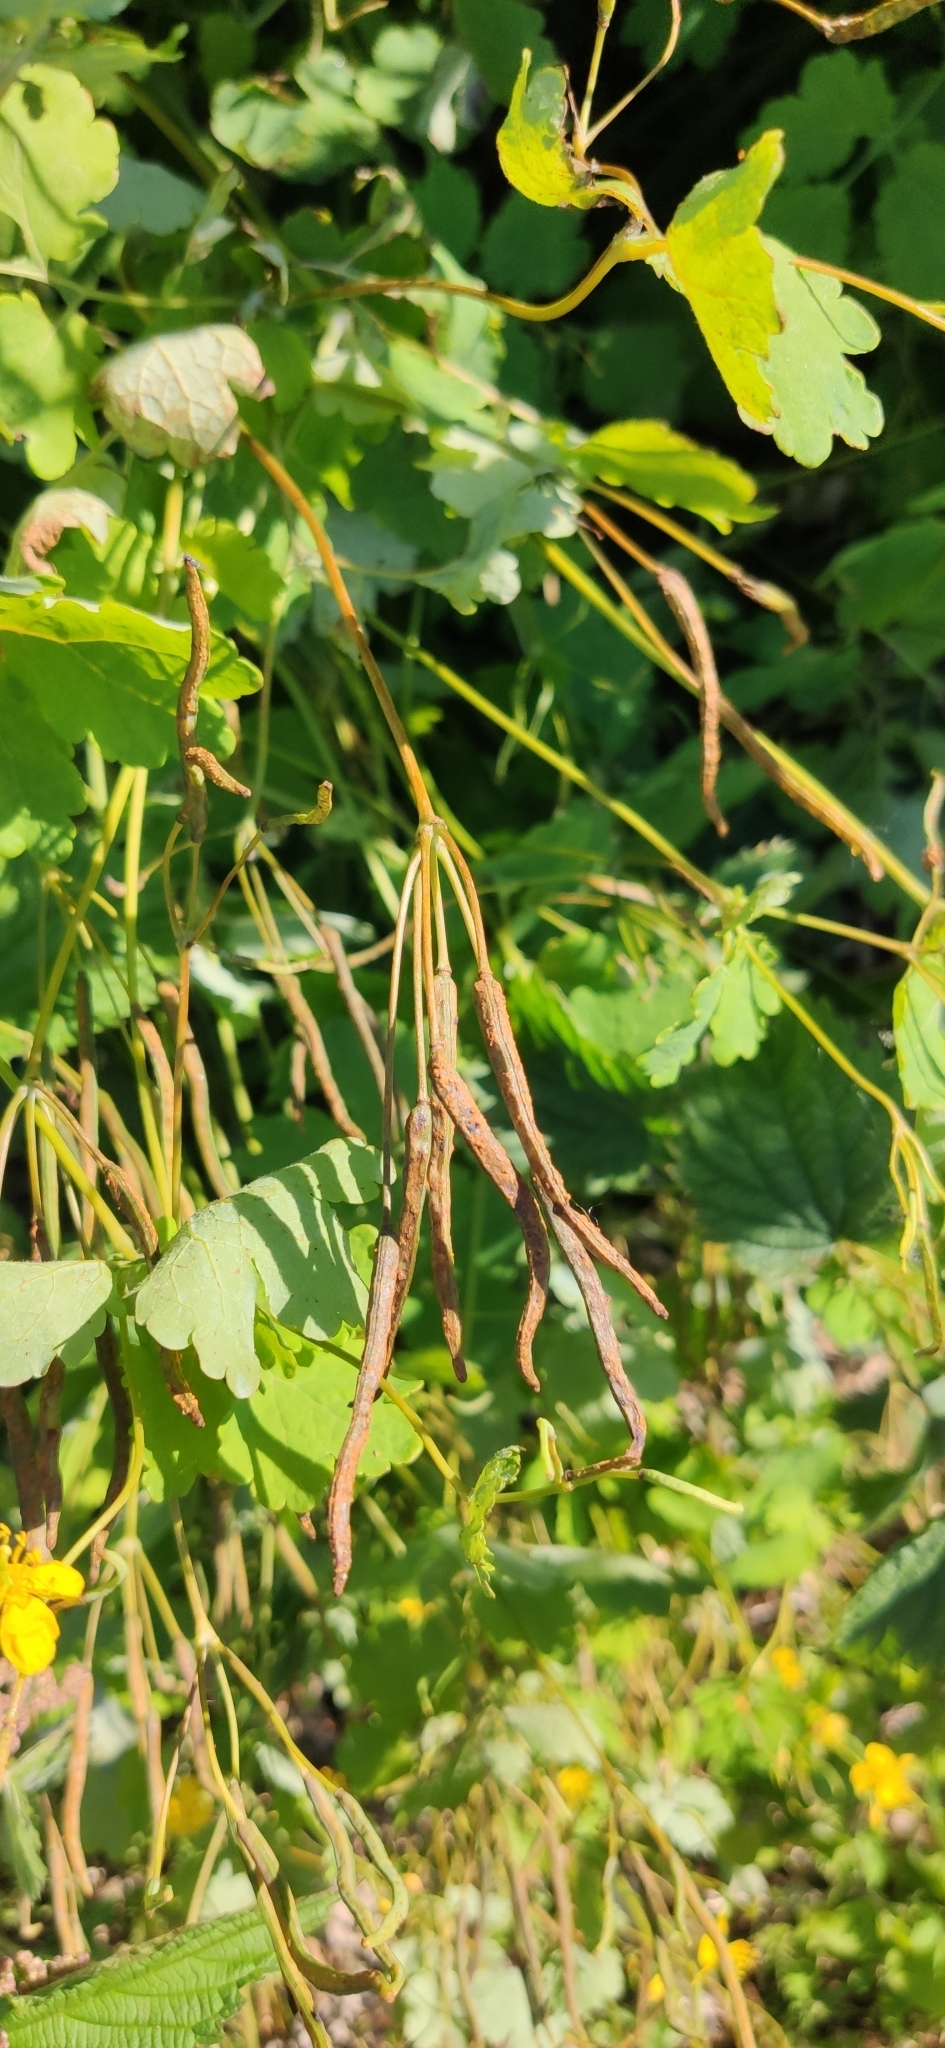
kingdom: Plantae
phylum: Tracheophyta
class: Magnoliopsida
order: Ranunculales
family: Papaveraceae
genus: Chelidonium
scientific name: Chelidonium majus
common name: Greater celandine
